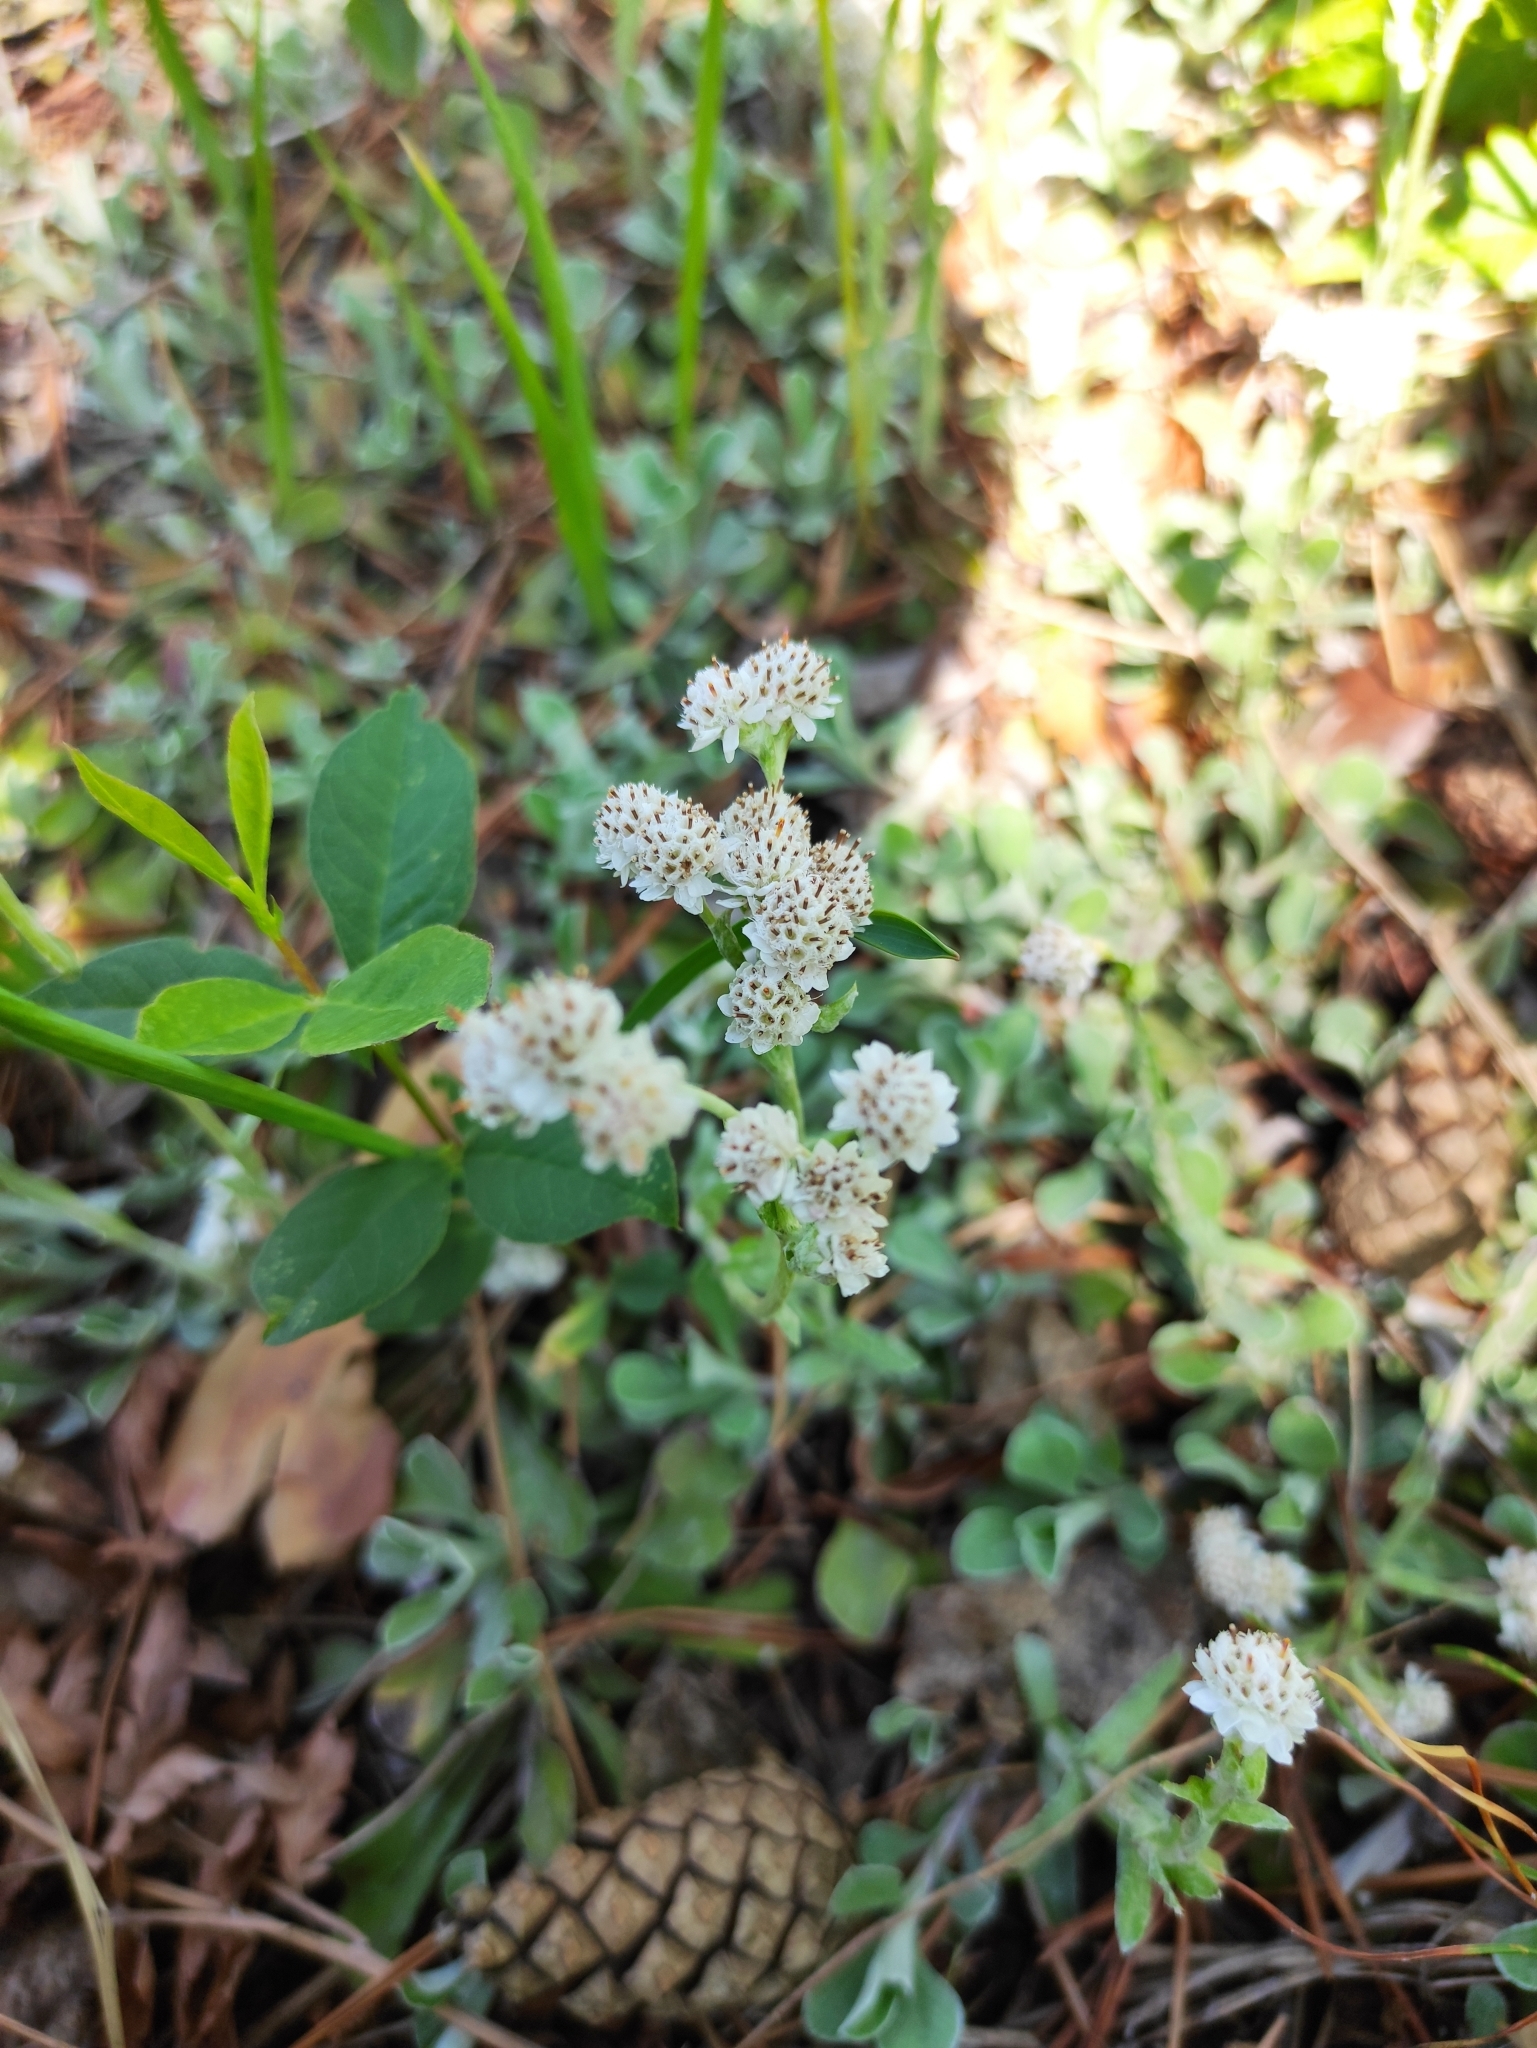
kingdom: Plantae
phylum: Tracheophyta
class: Magnoliopsida
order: Asterales
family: Asteraceae
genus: Antennaria
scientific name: Antennaria dioica
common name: Mountain everlasting
